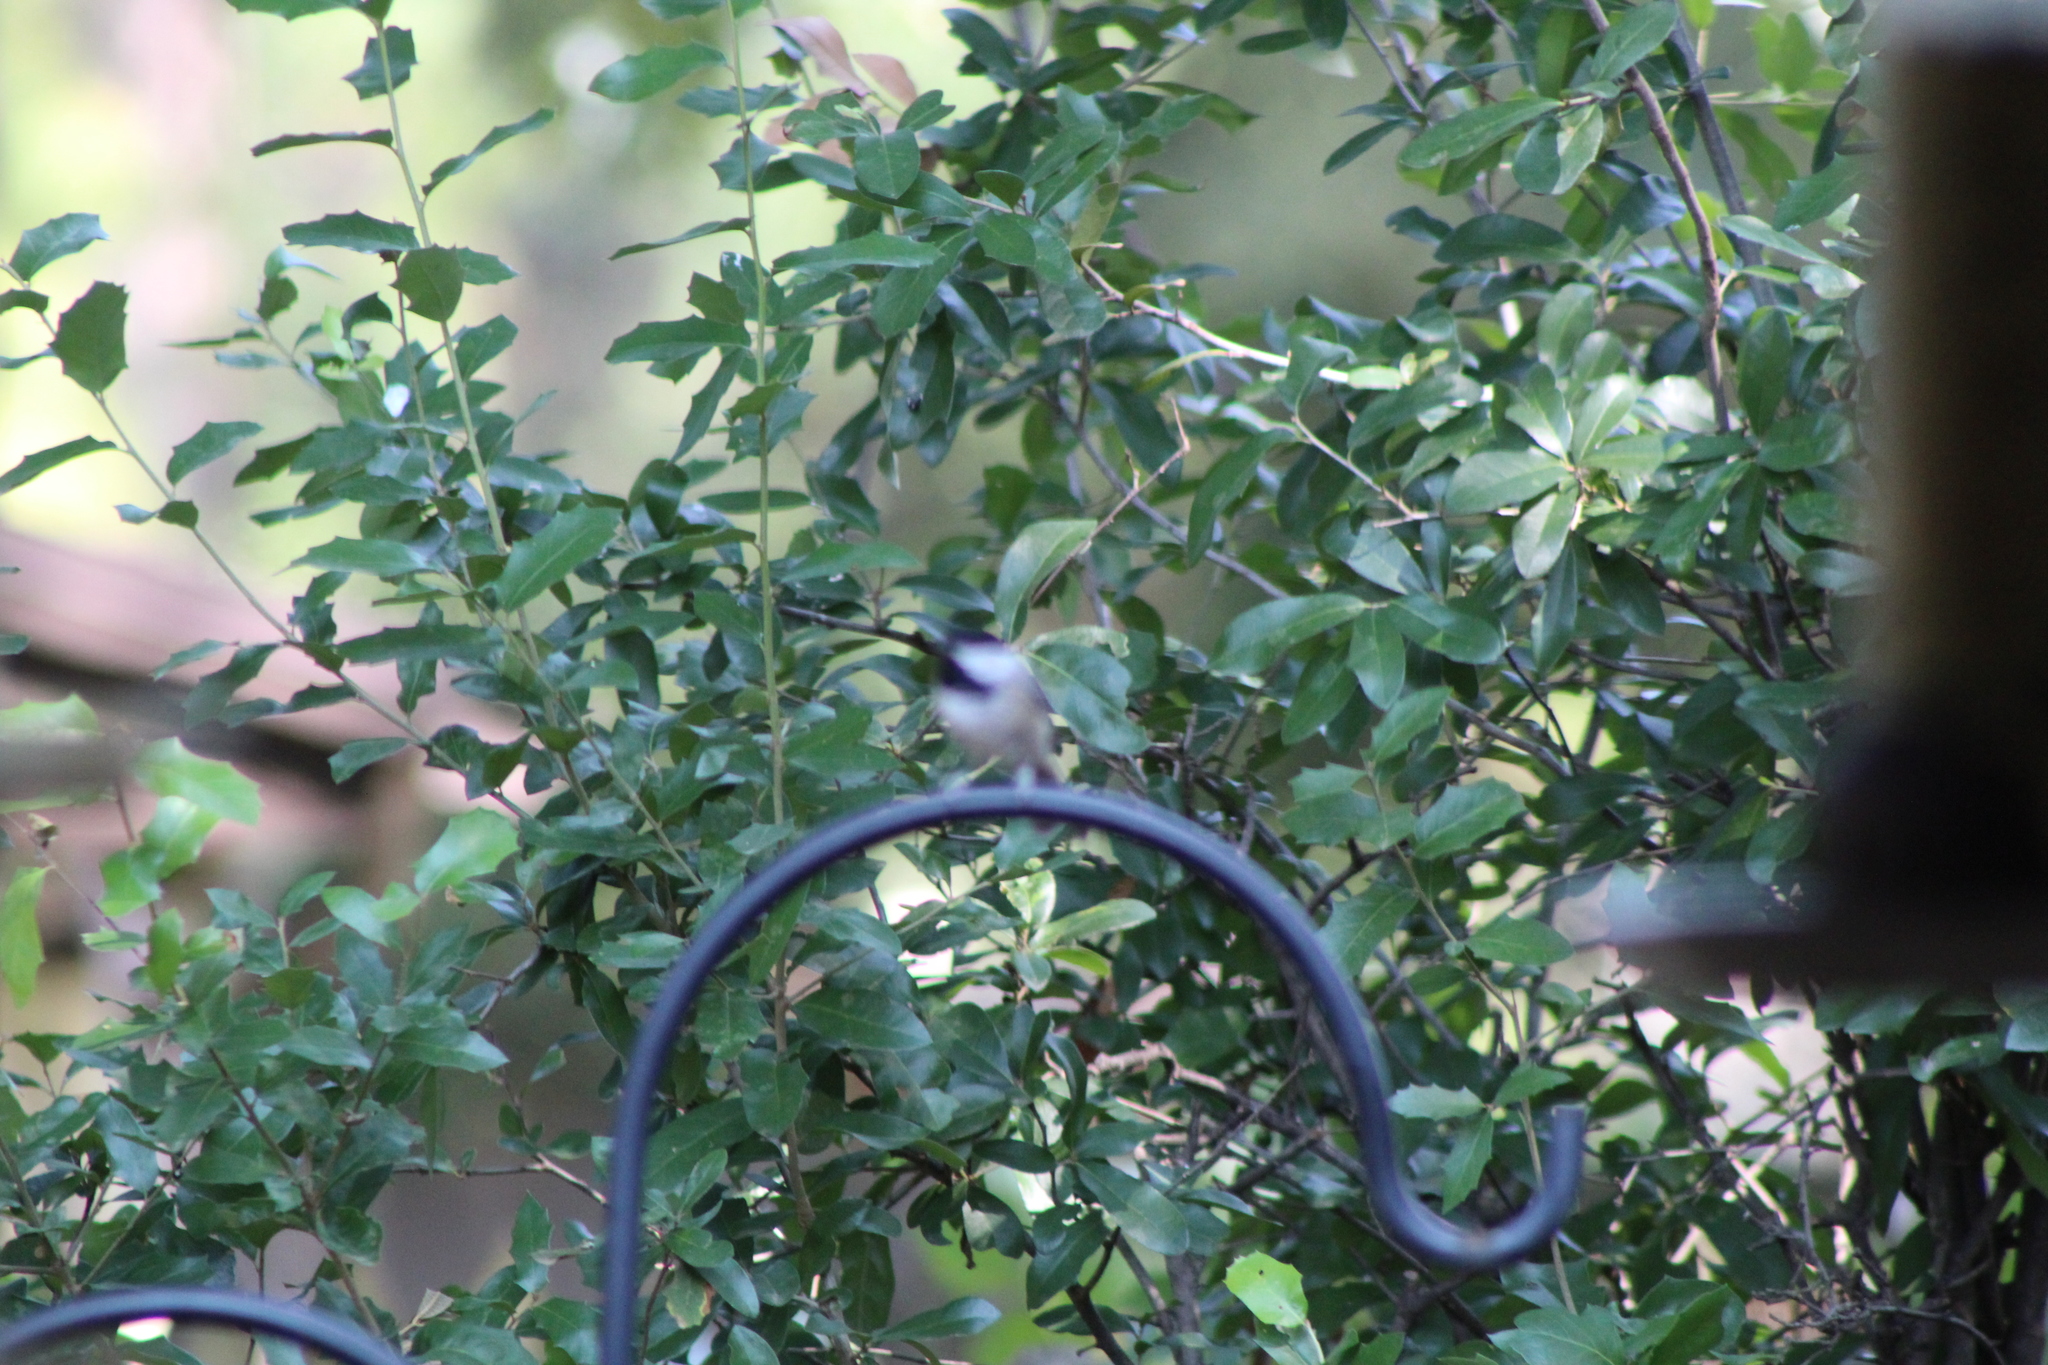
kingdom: Animalia
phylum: Chordata
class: Aves
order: Passeriformes
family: Paridae
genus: Poecile
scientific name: Poecile carolinensis
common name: Carolina chickadee
